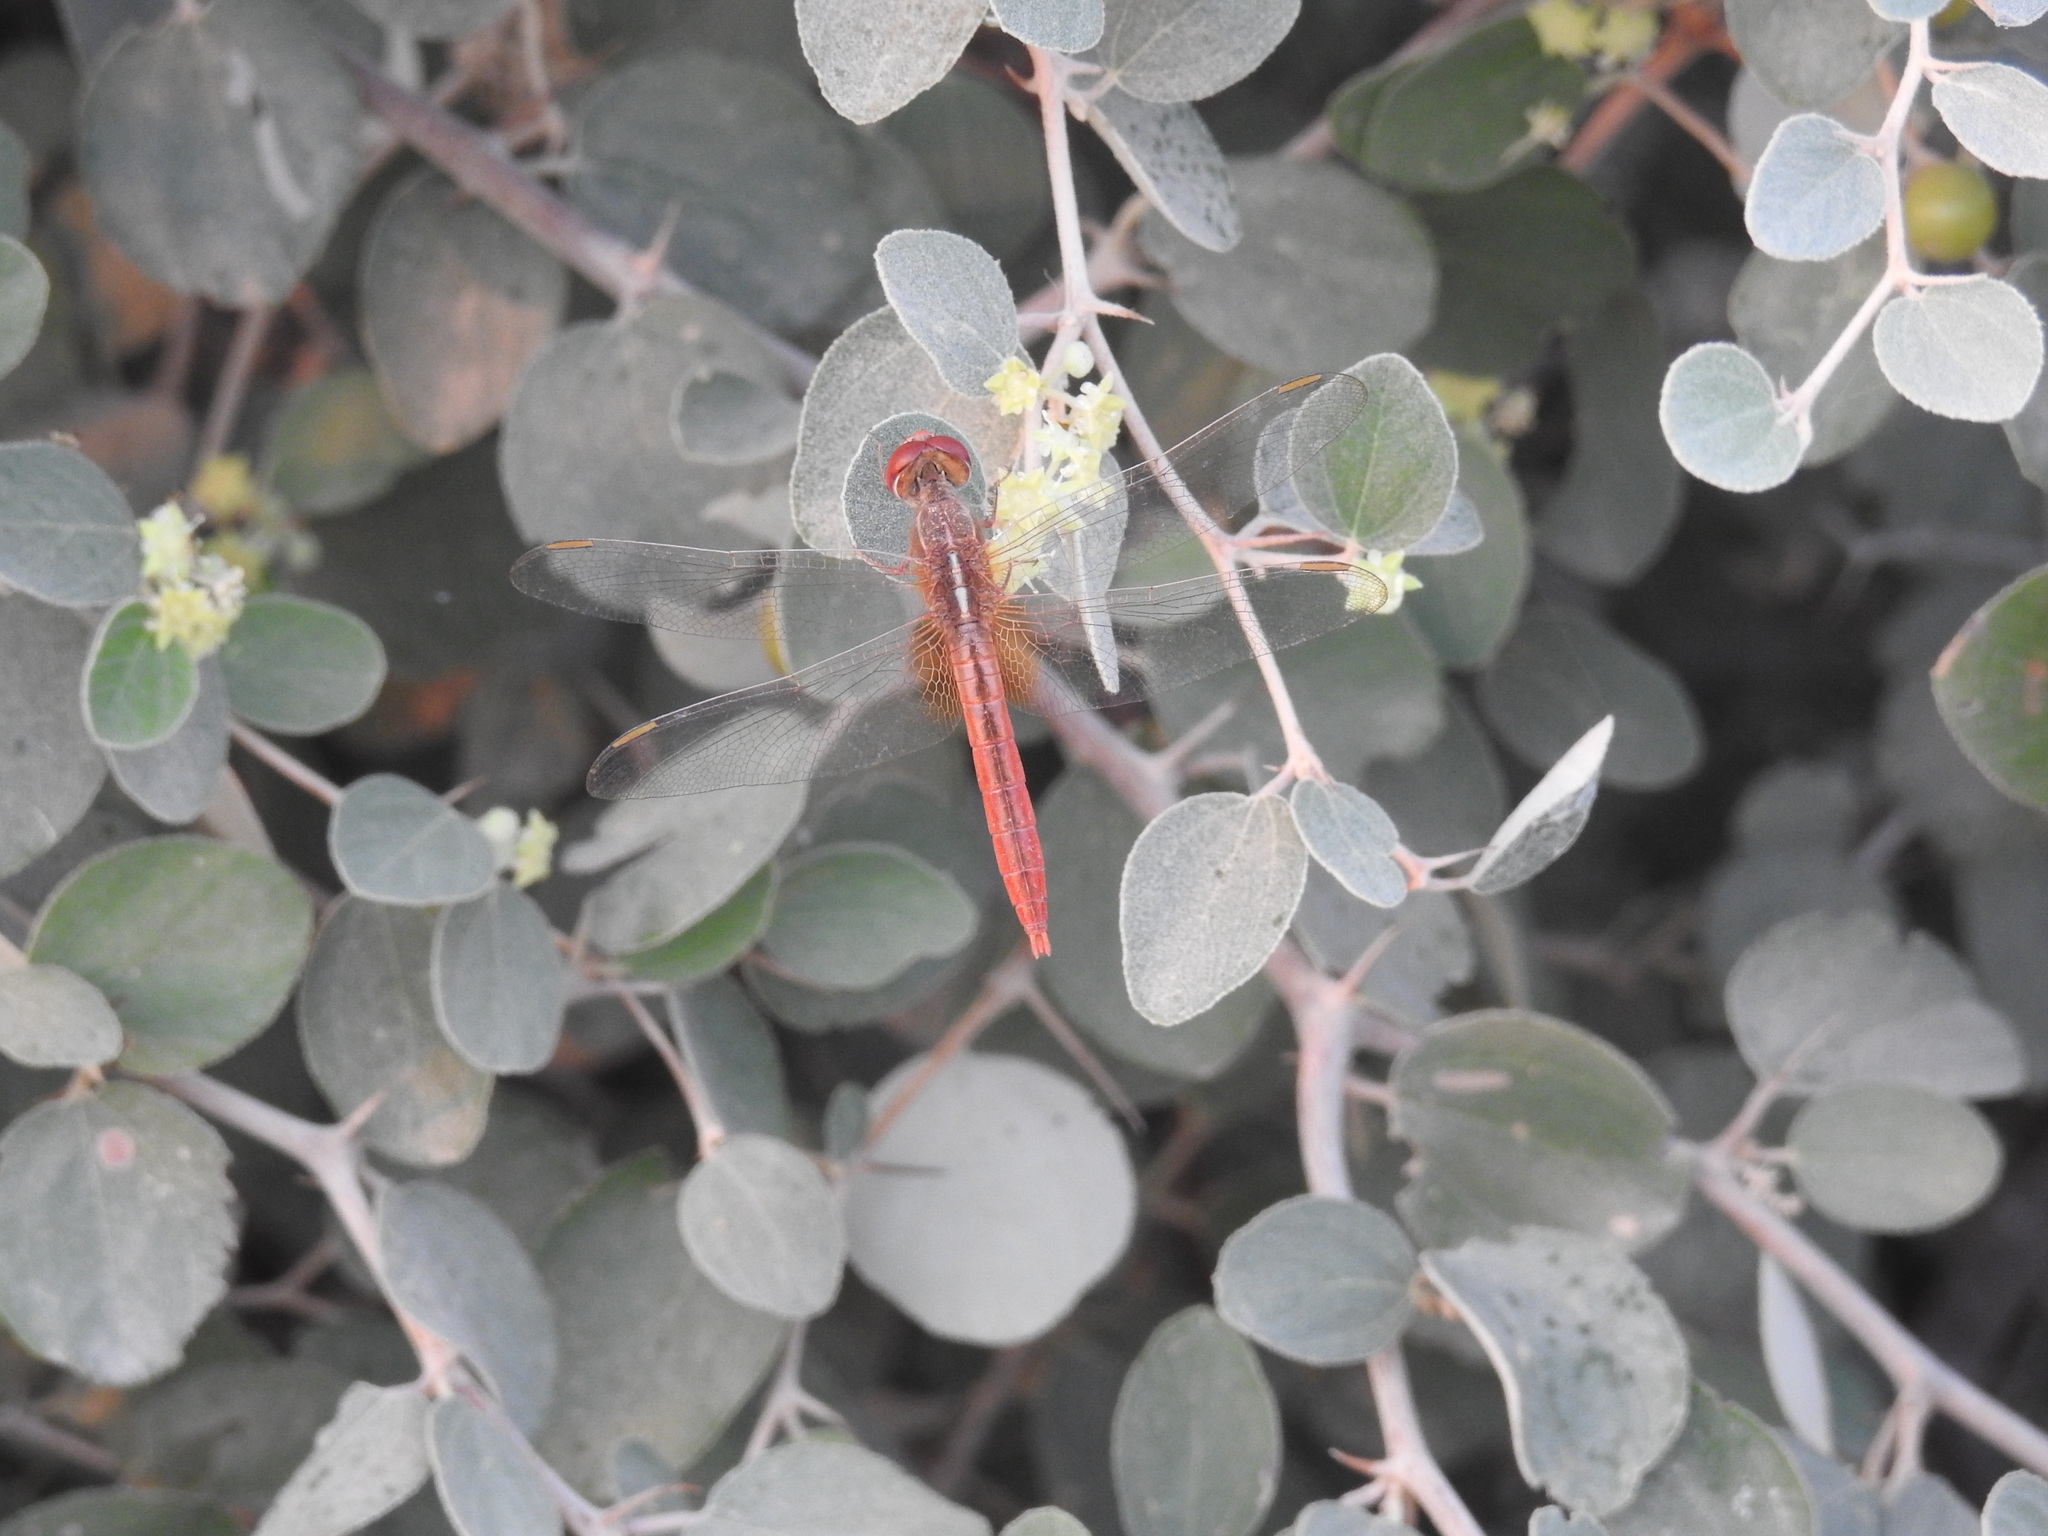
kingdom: Animalia
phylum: Arthropoda
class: Insecta
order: Odonata
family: Libellulidae
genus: Crocothemis
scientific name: Crocothemis servilia
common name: Scarlet skimmer
